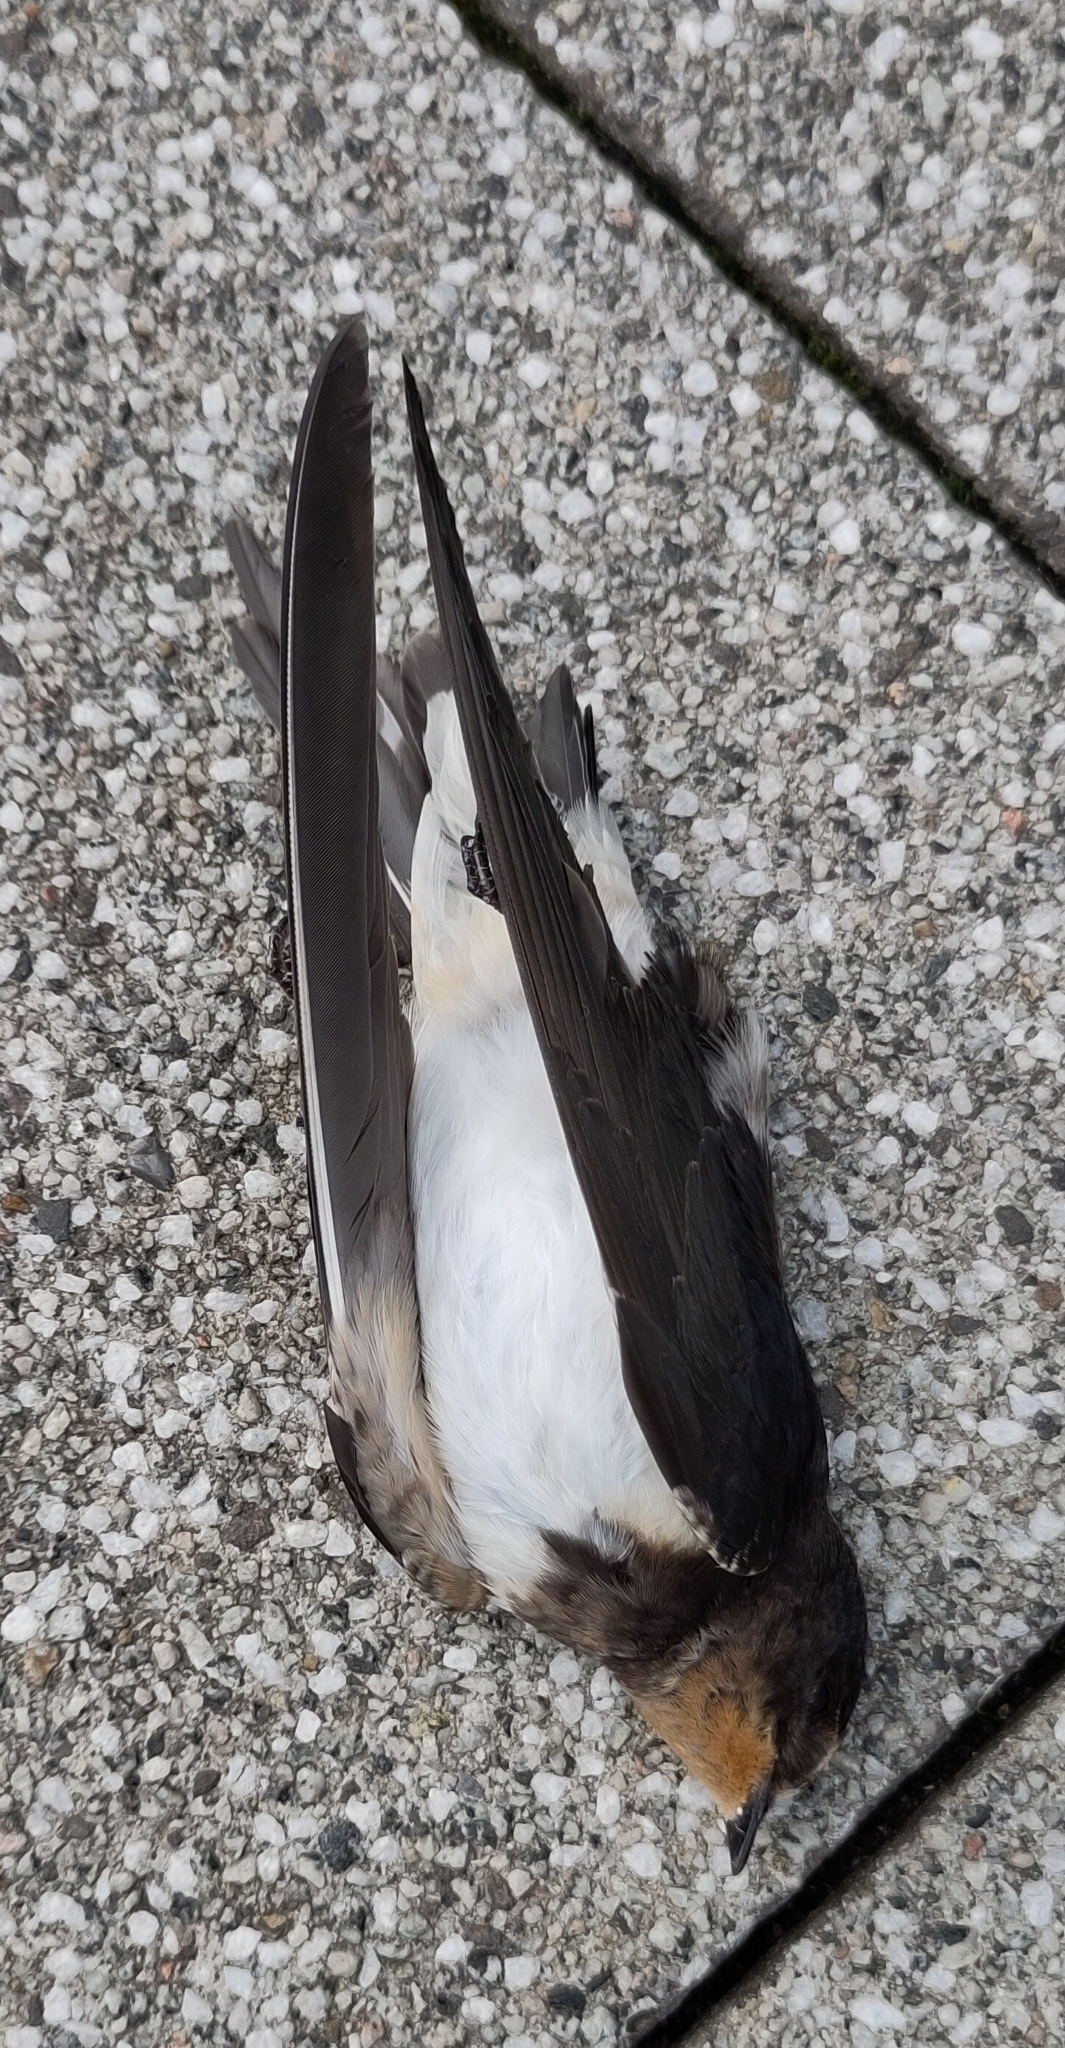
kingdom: Animalia
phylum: Chordata
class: Aves
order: Passeriformes
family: Hirundinidae
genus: Hirundo
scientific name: Hirundo rustica
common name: Barn swallow
